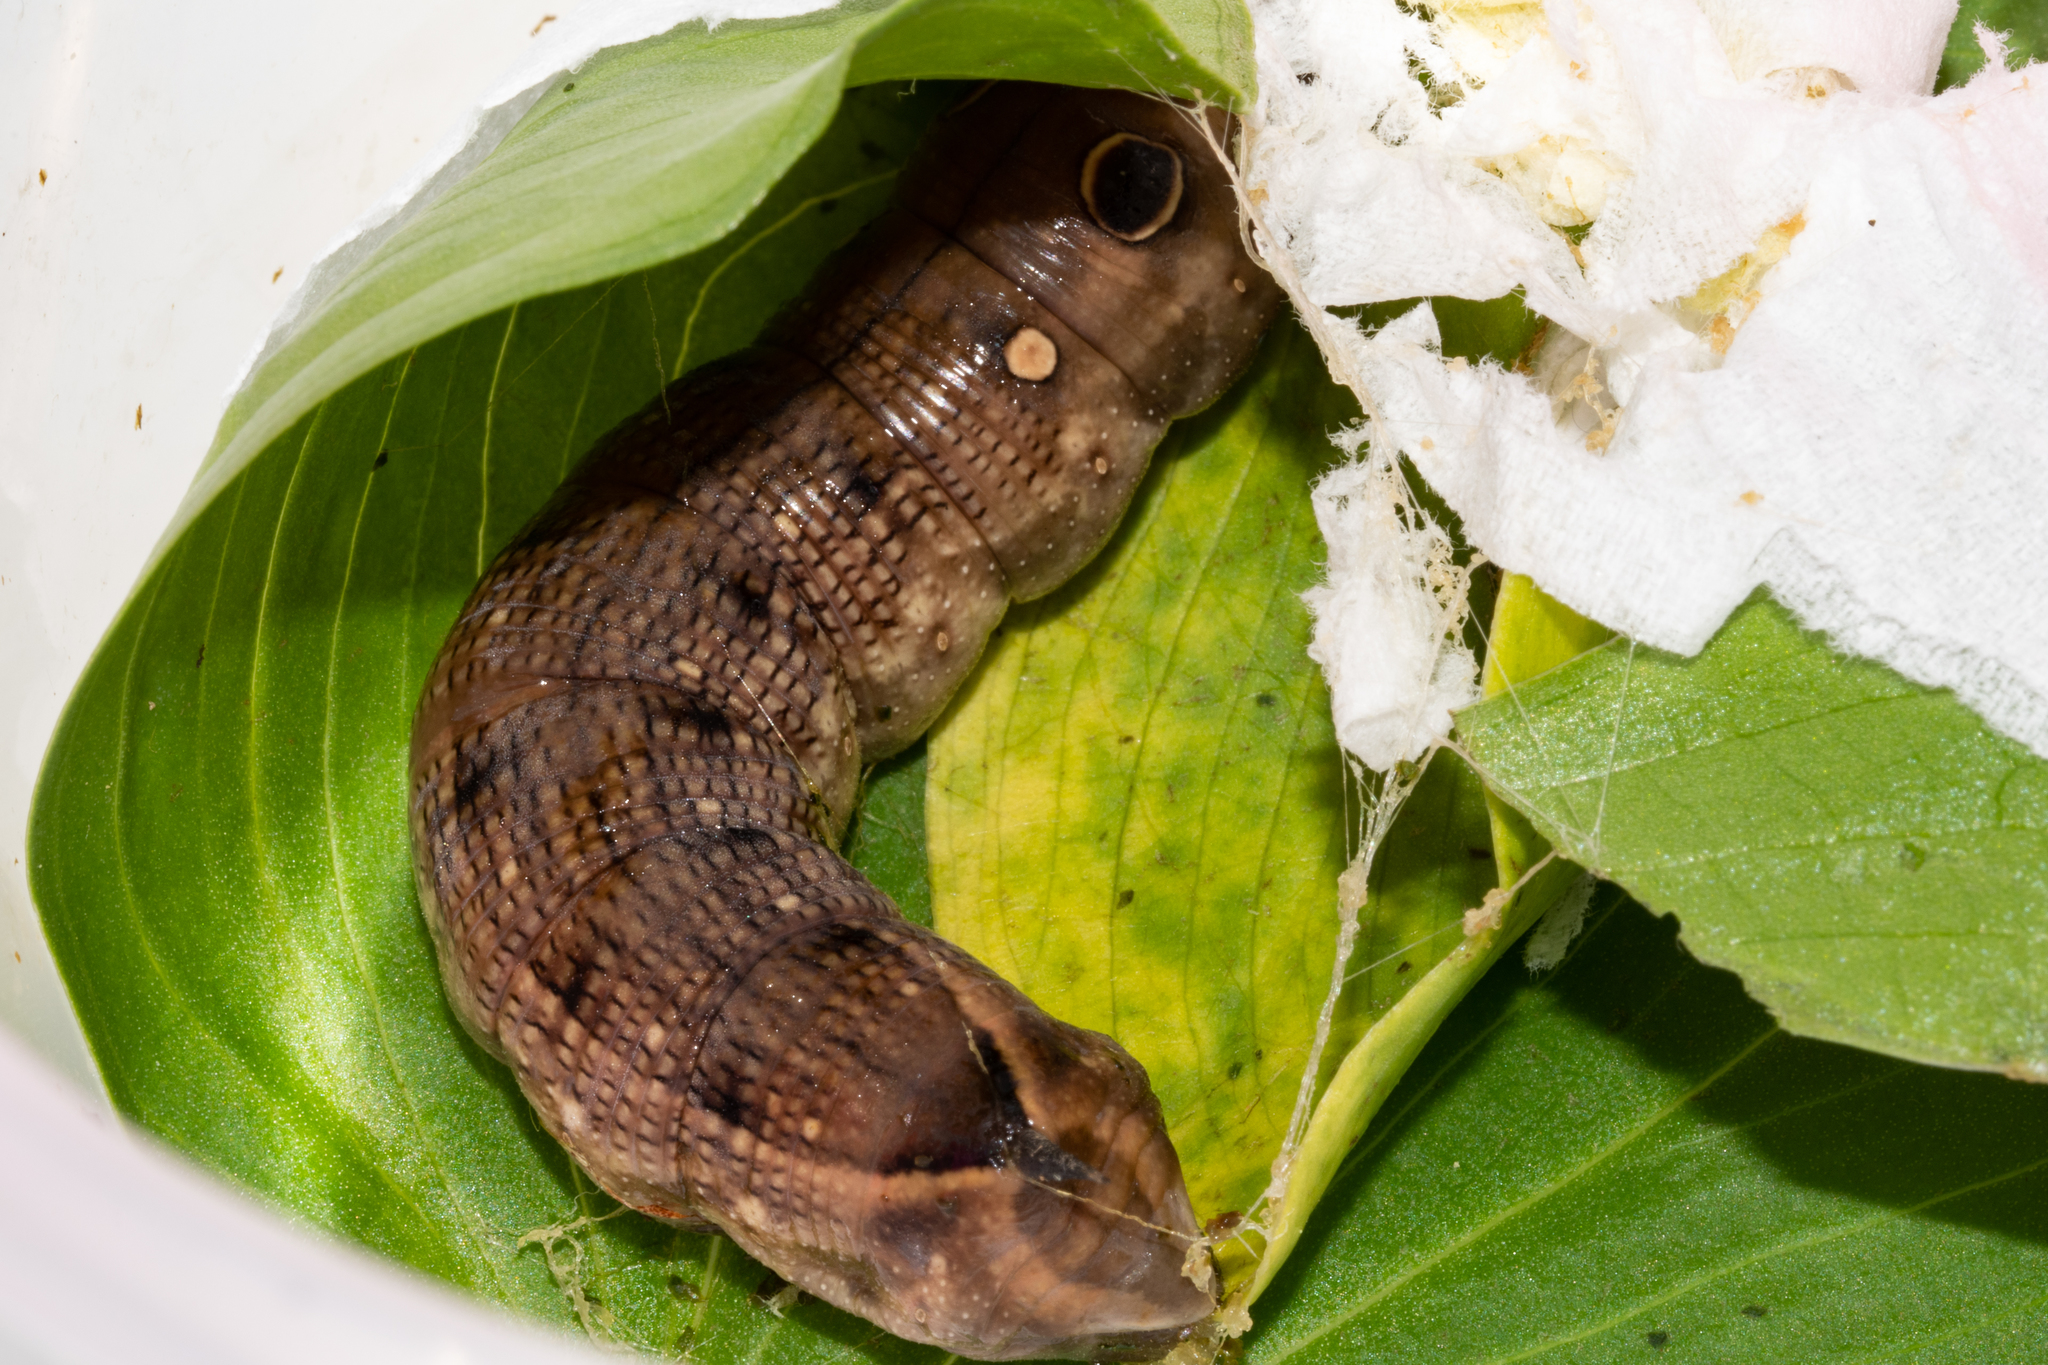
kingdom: Animalia
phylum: Arthropoda
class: Insecta
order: Lepidoptera
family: Sphingidae
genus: Hippotion
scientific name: Hippotion celerio
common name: Silver-striped hawk-moth
